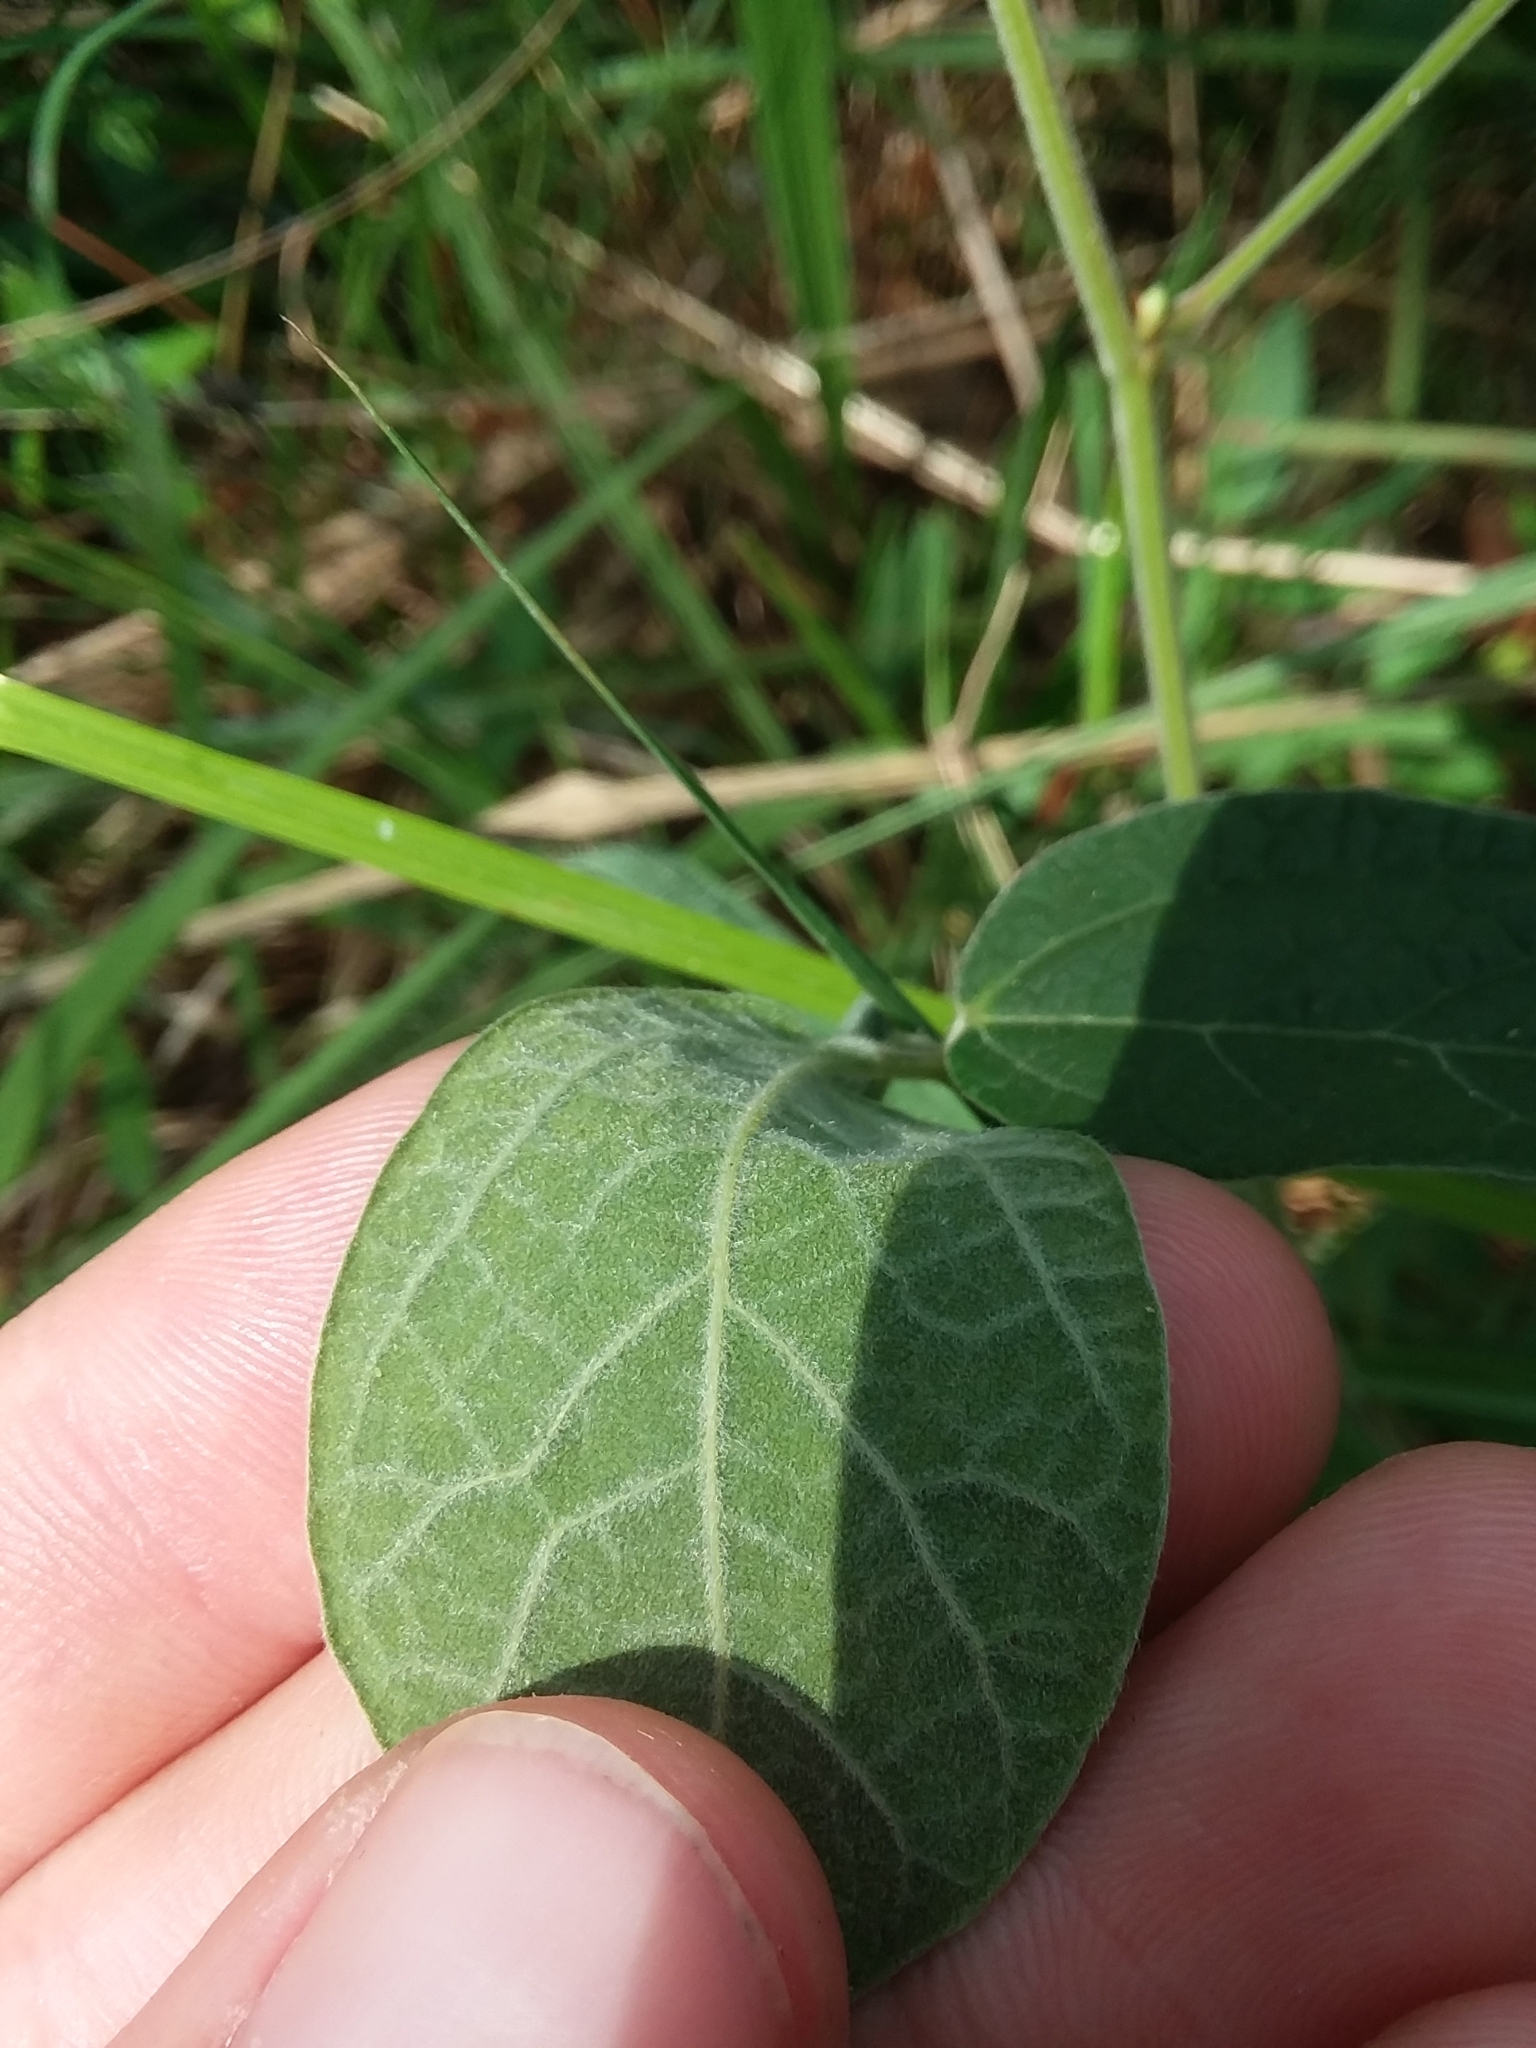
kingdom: Plantae
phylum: Tracheophyta
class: Magnoliopsida
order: Fabales
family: Fabaceae
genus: Rhynchosia
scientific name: Rhynchosia tomentosa
